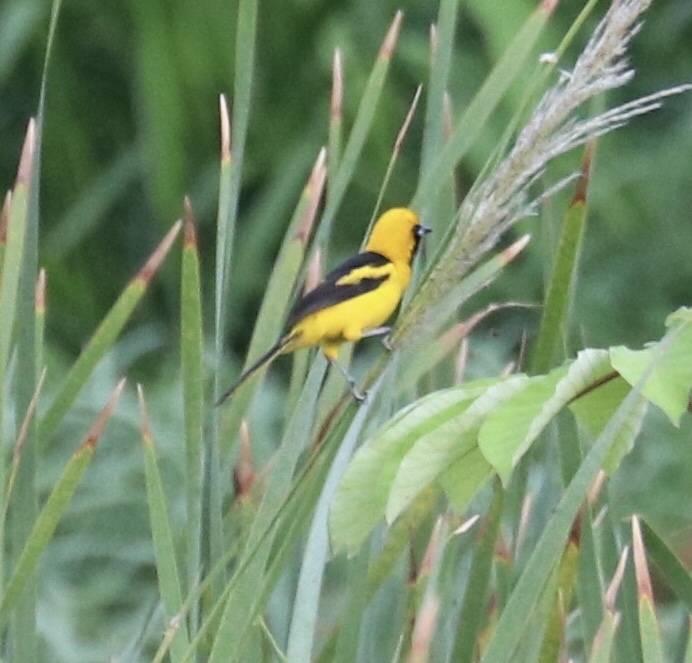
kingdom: Animalia
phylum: Chordata
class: Aves
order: Passeriformes
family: Icteridae
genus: Icterus
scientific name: Icterus mesomelas
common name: Yellow-tailed oriole
